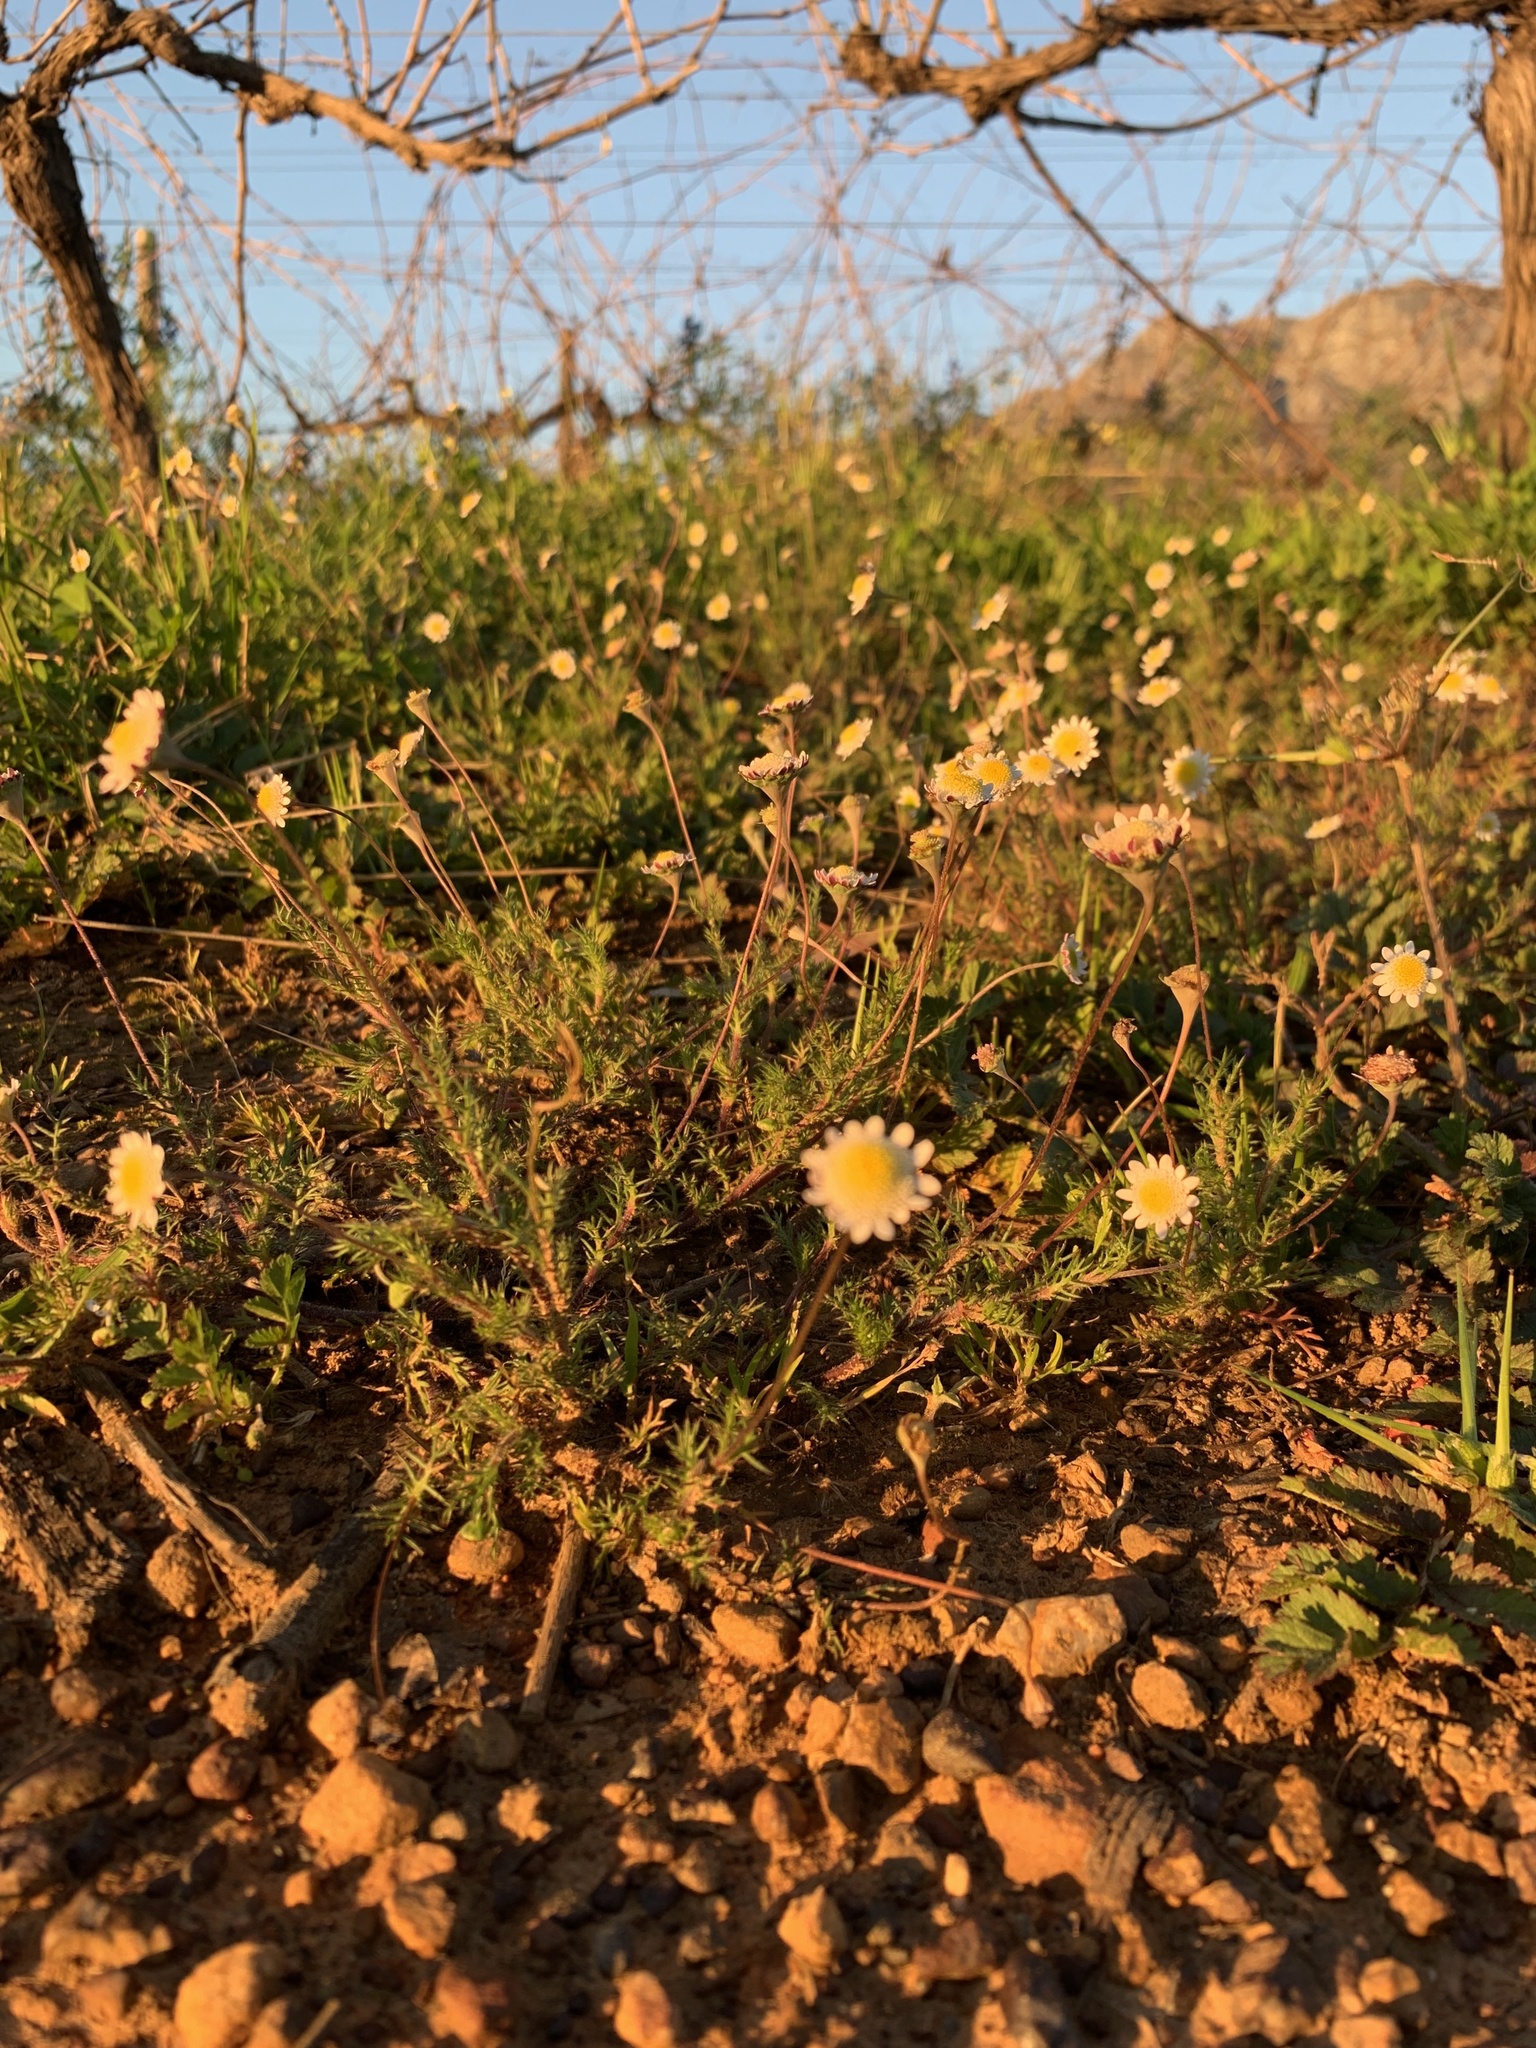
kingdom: Plantae
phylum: Tracheophyta
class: Magnoliopsida
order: Asterales
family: Asteraceae
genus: Cotula
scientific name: Cotula turbinata
